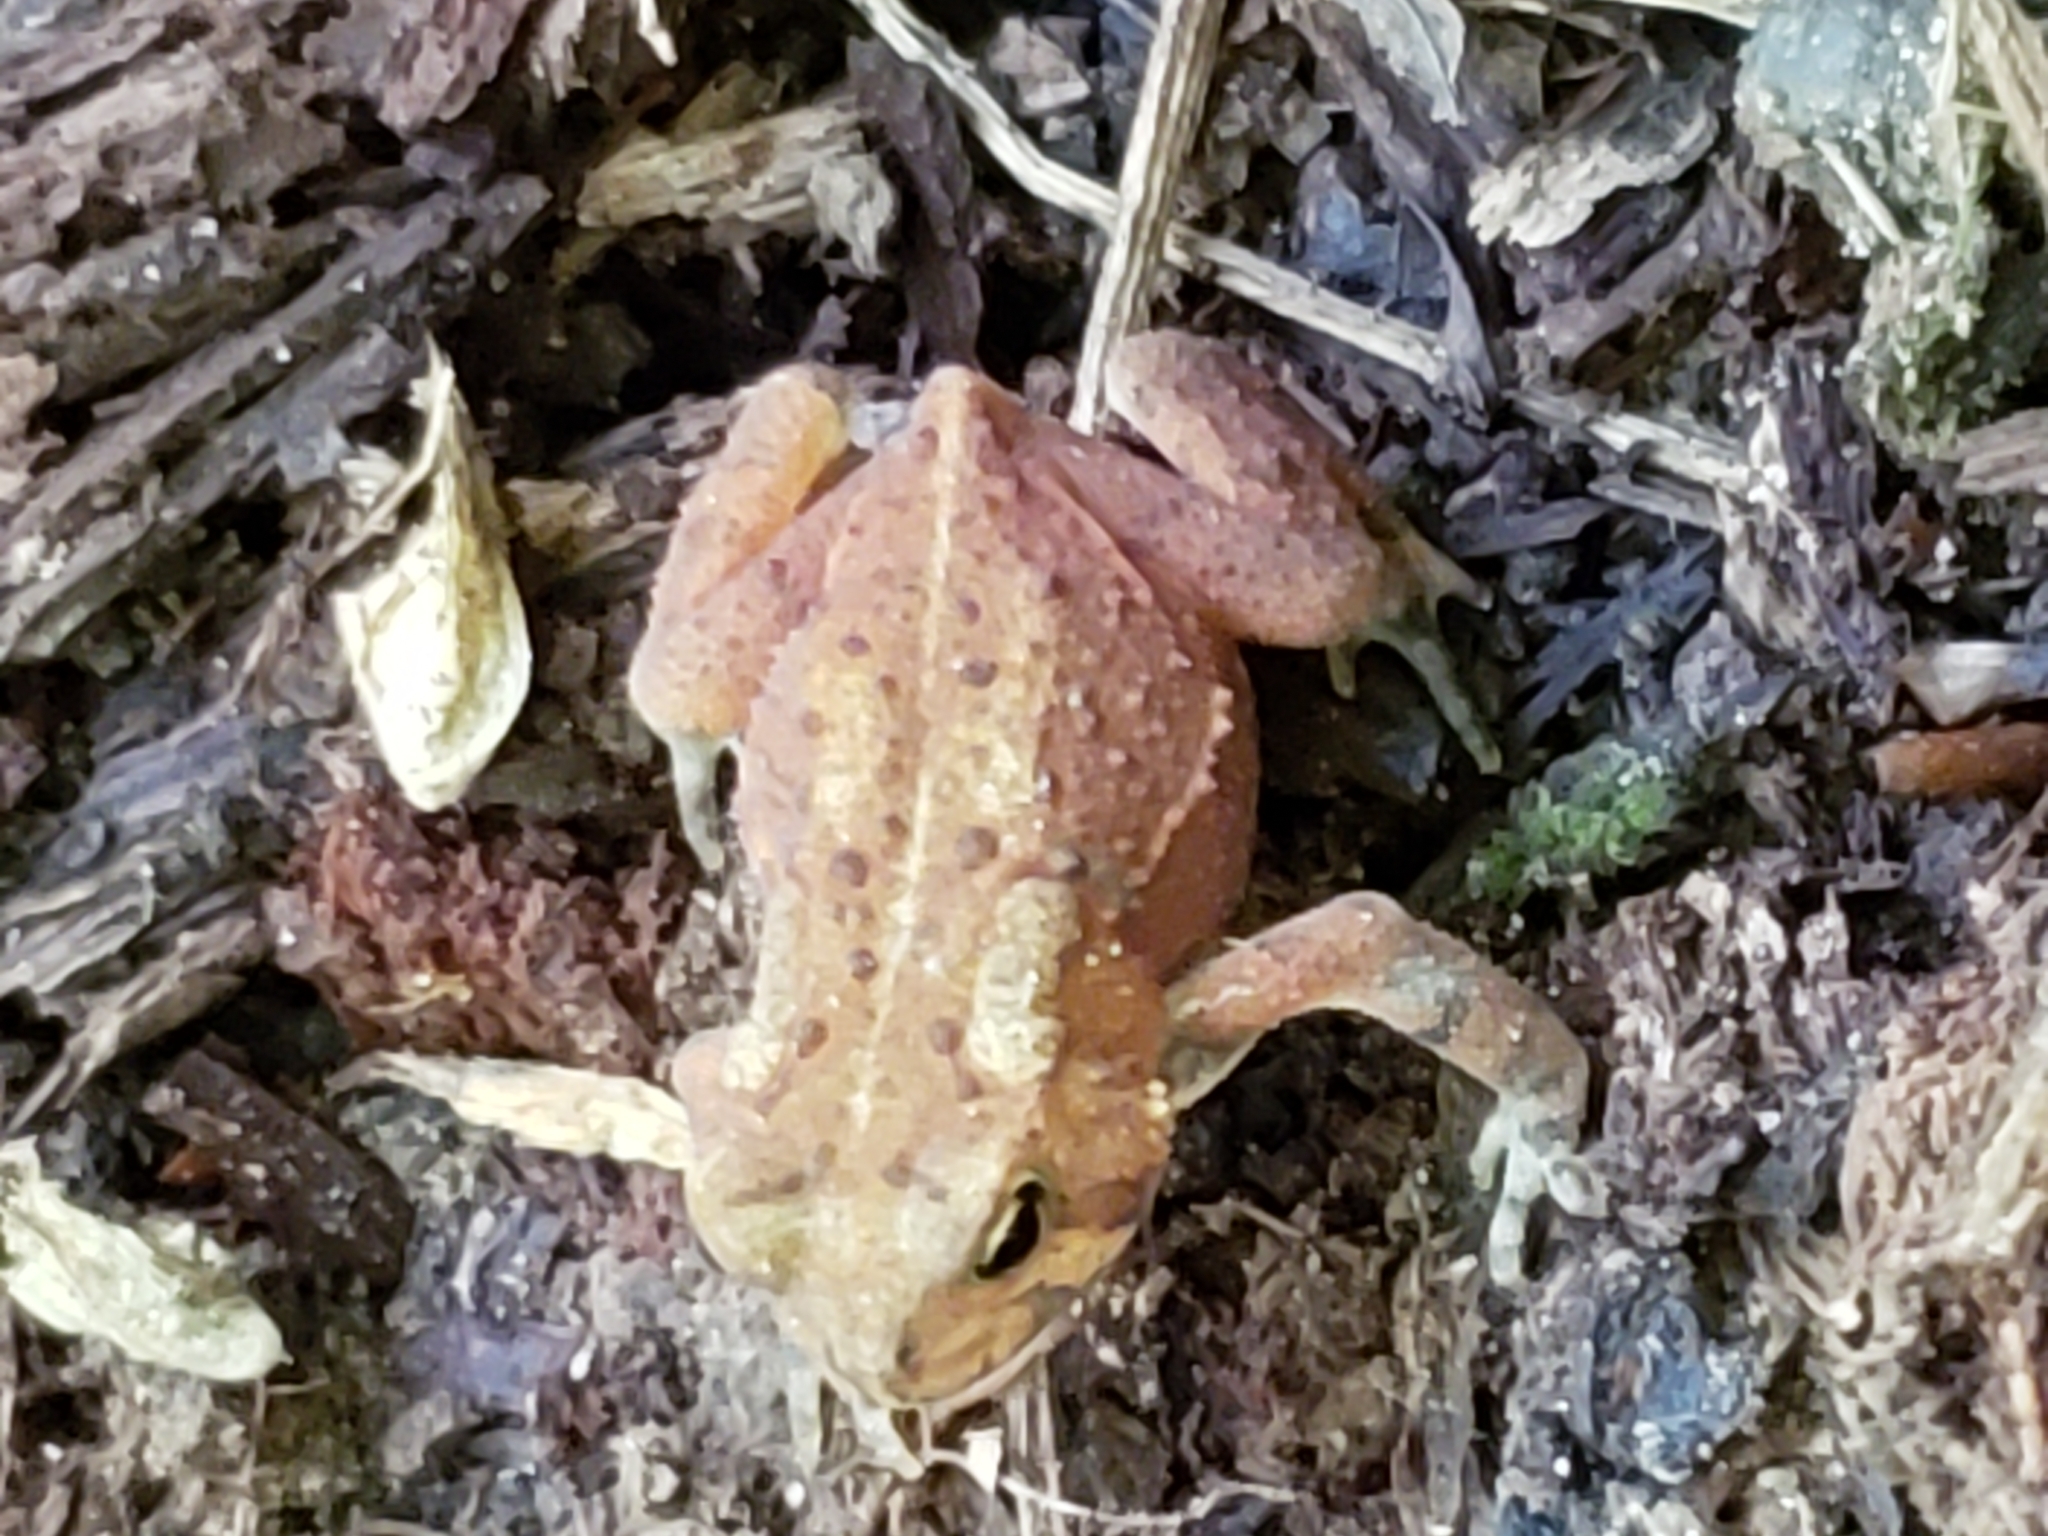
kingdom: Animalia
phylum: Chordata
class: Amphibia
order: Anura
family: Bufonidae
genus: Anaxyrus
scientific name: Anaxyrus americanus
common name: American toad
